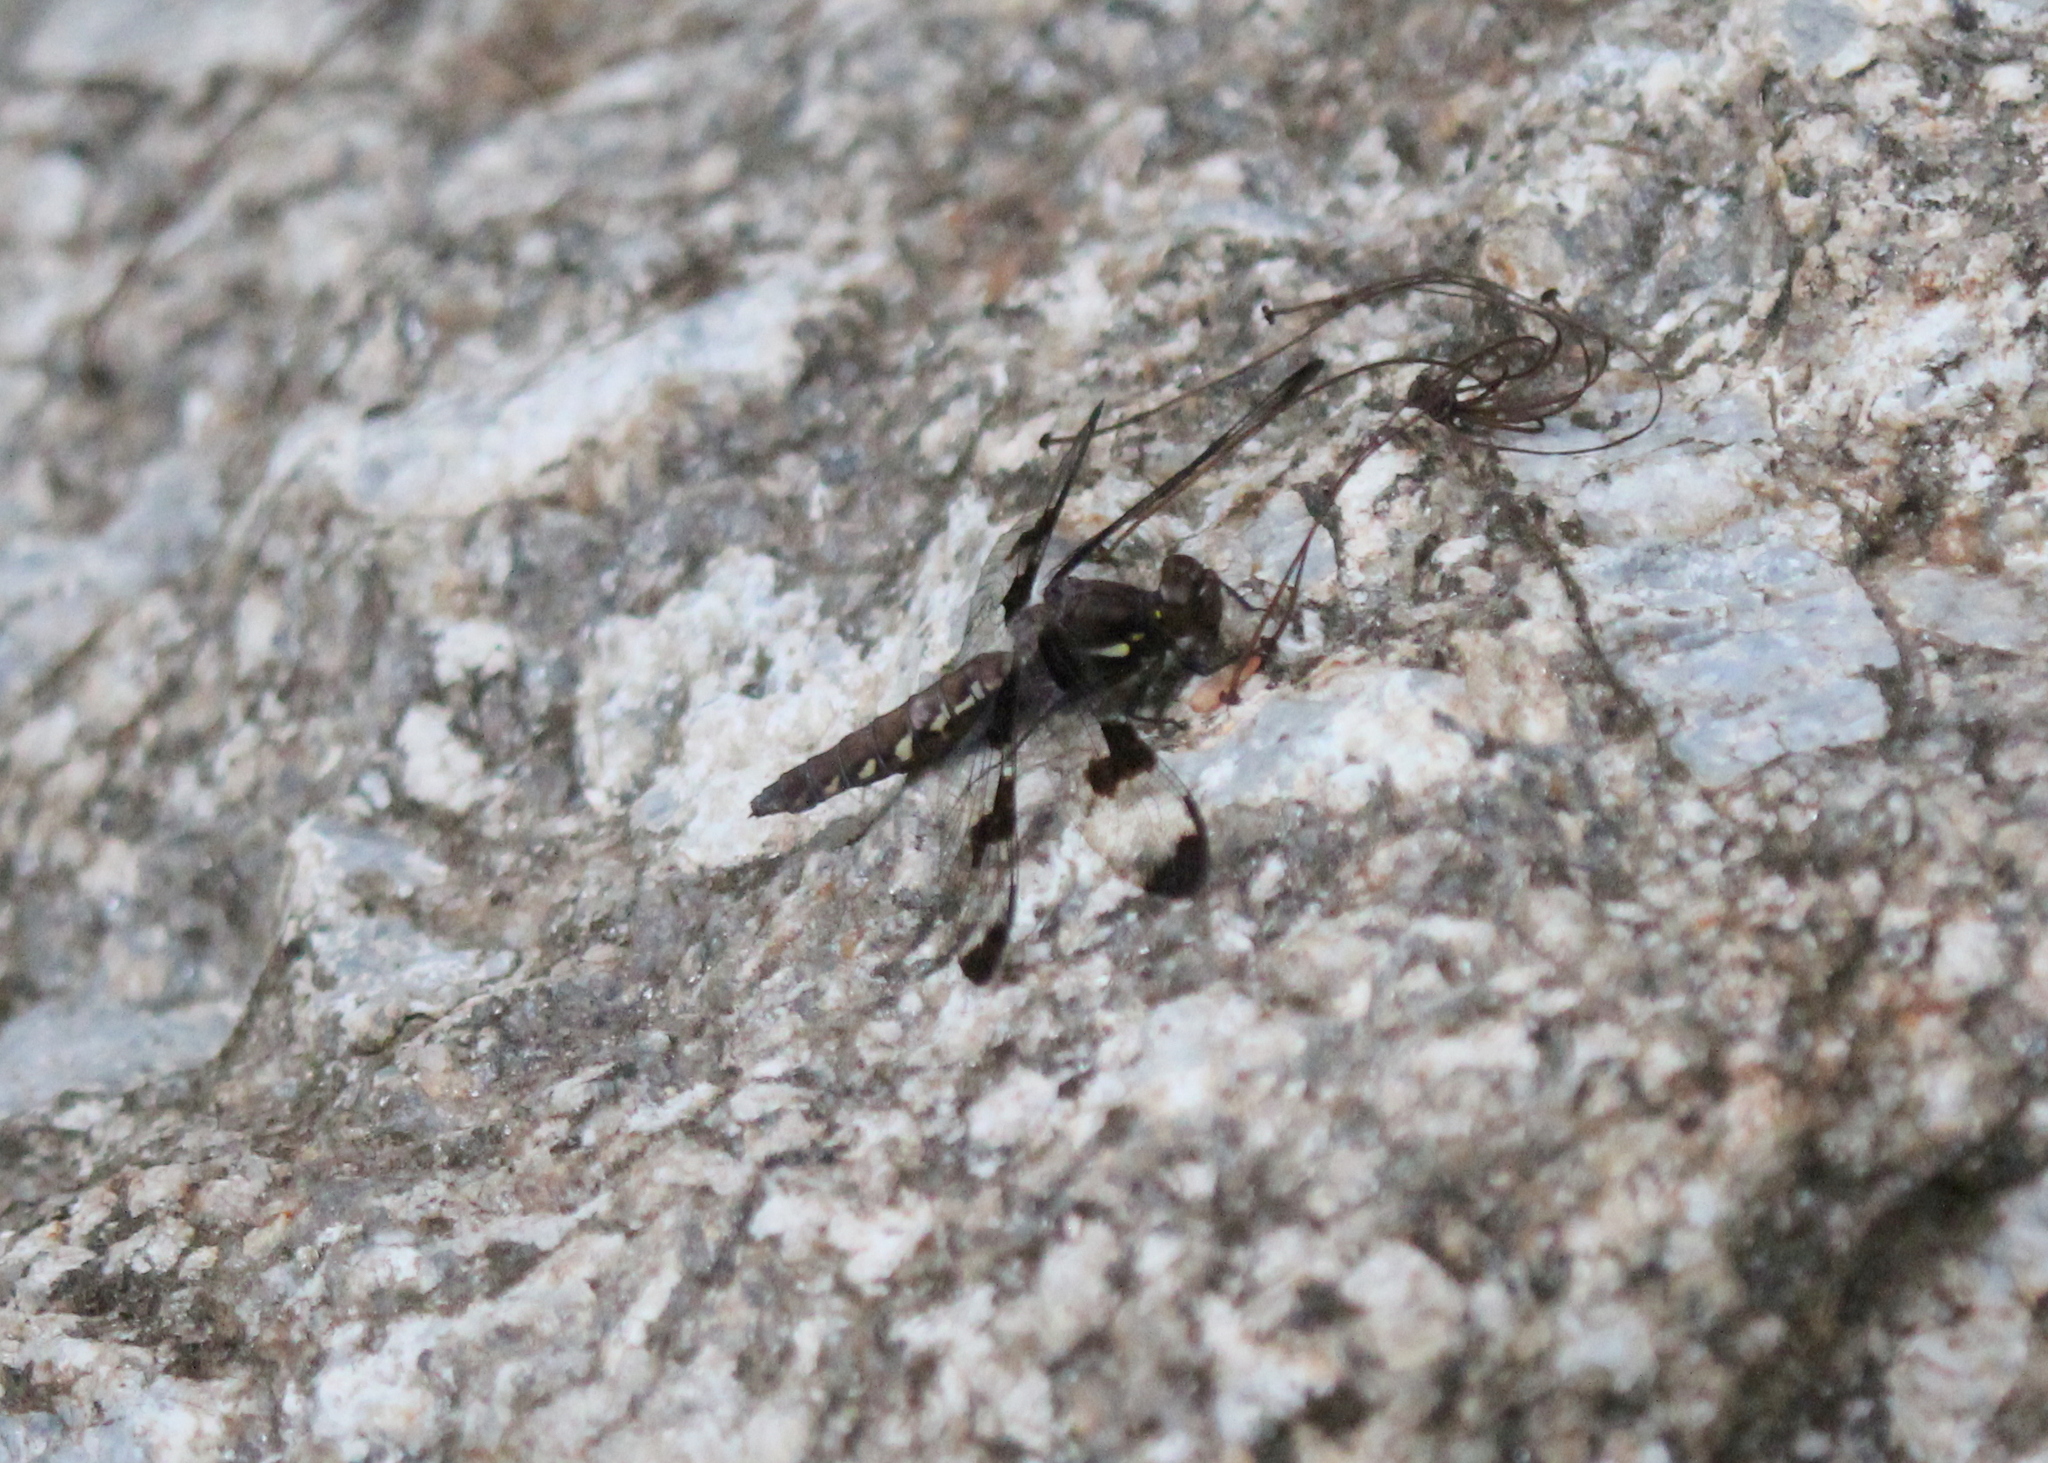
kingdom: Animalia
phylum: Arthropoda
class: Insecta
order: Odonata
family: Libellulidae
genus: Plathemis
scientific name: Plathemis lydia
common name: Common whitetail
